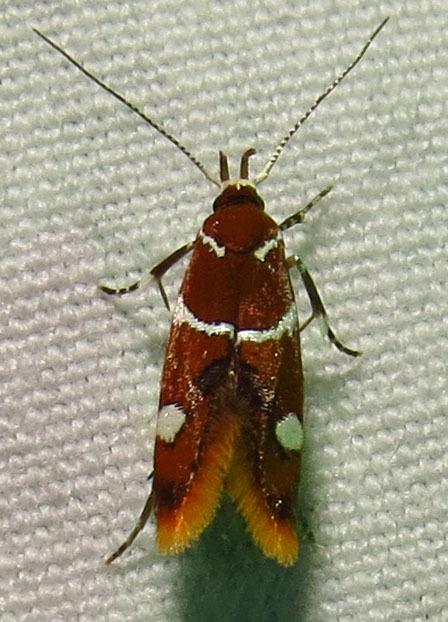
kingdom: Animalia
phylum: Arthropoda
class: Insecta
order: Lepidoptera
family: Oecophoridae
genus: Promalactis
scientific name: Promalactis suzukiella
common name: Moth
